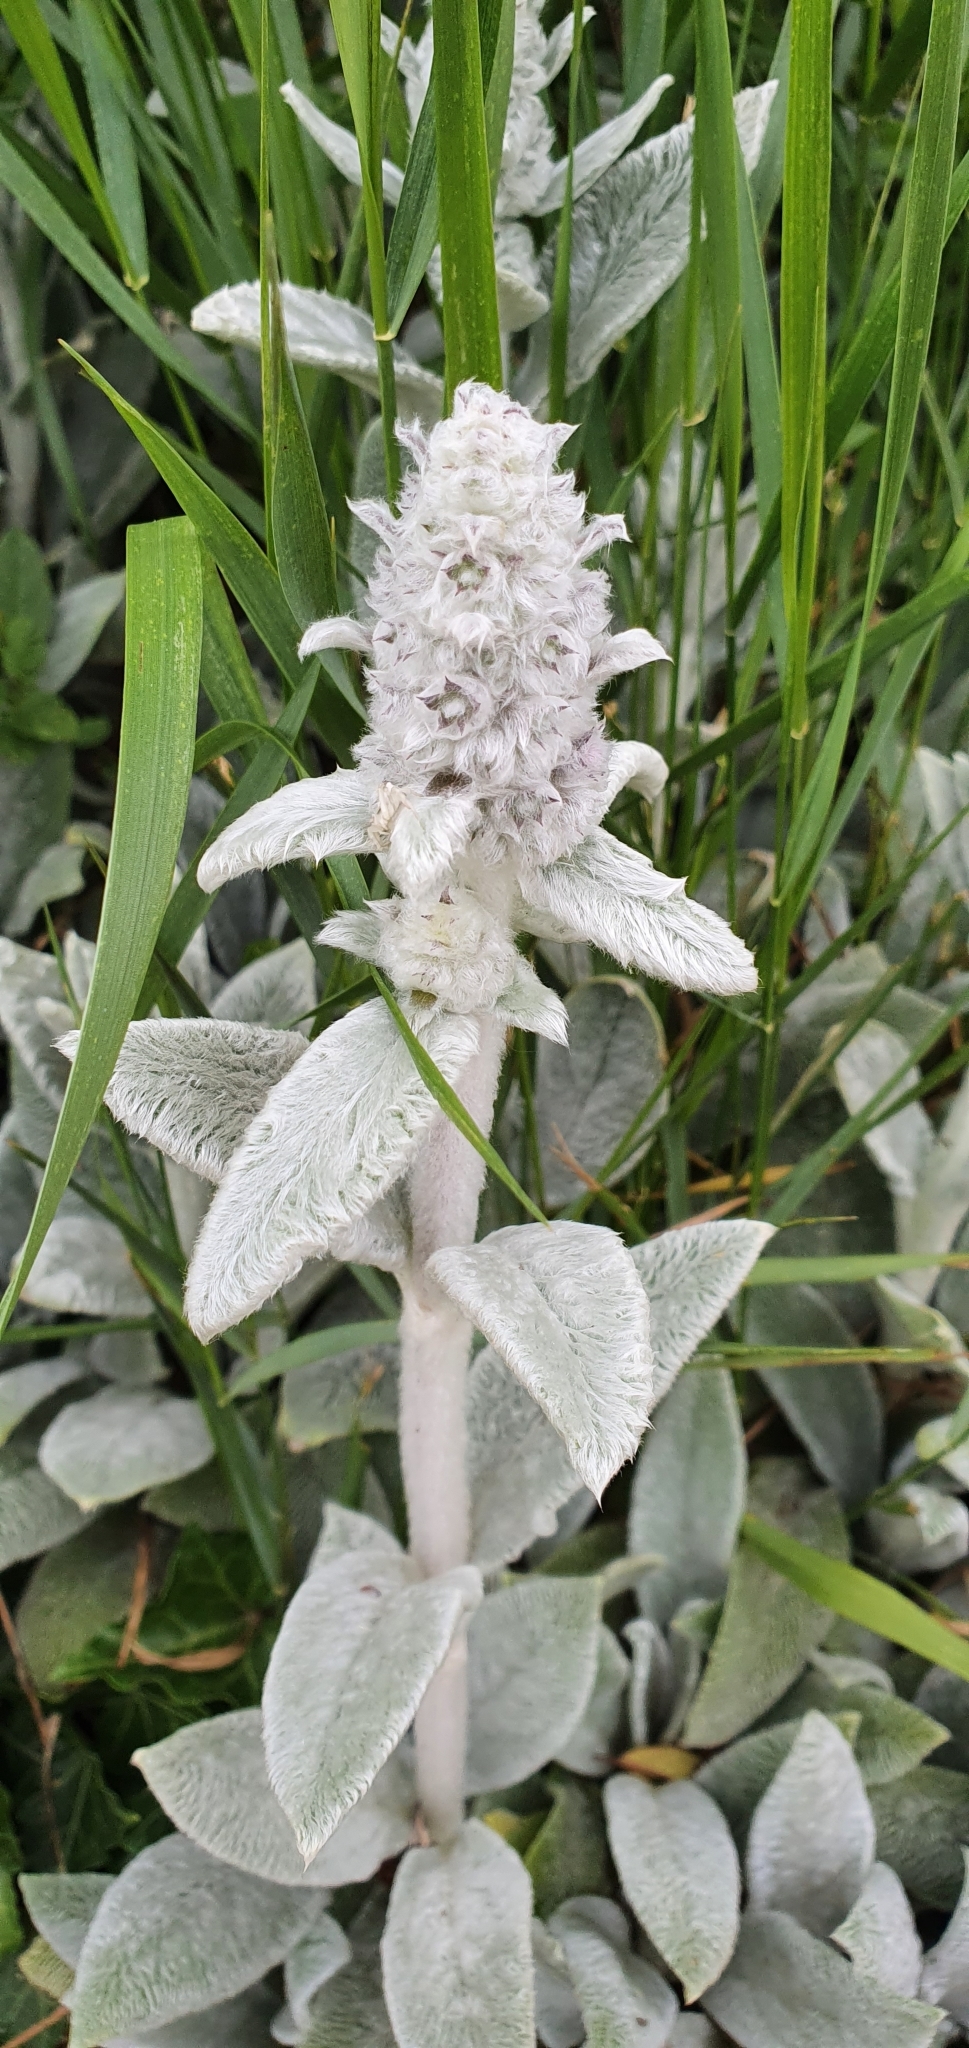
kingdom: Plantae
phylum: Tracheophyta
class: Magnoliopsida
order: Lamiales
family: Lamiaceae
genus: Stachys
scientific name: Stachys byzantina
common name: Lamb's-ear
